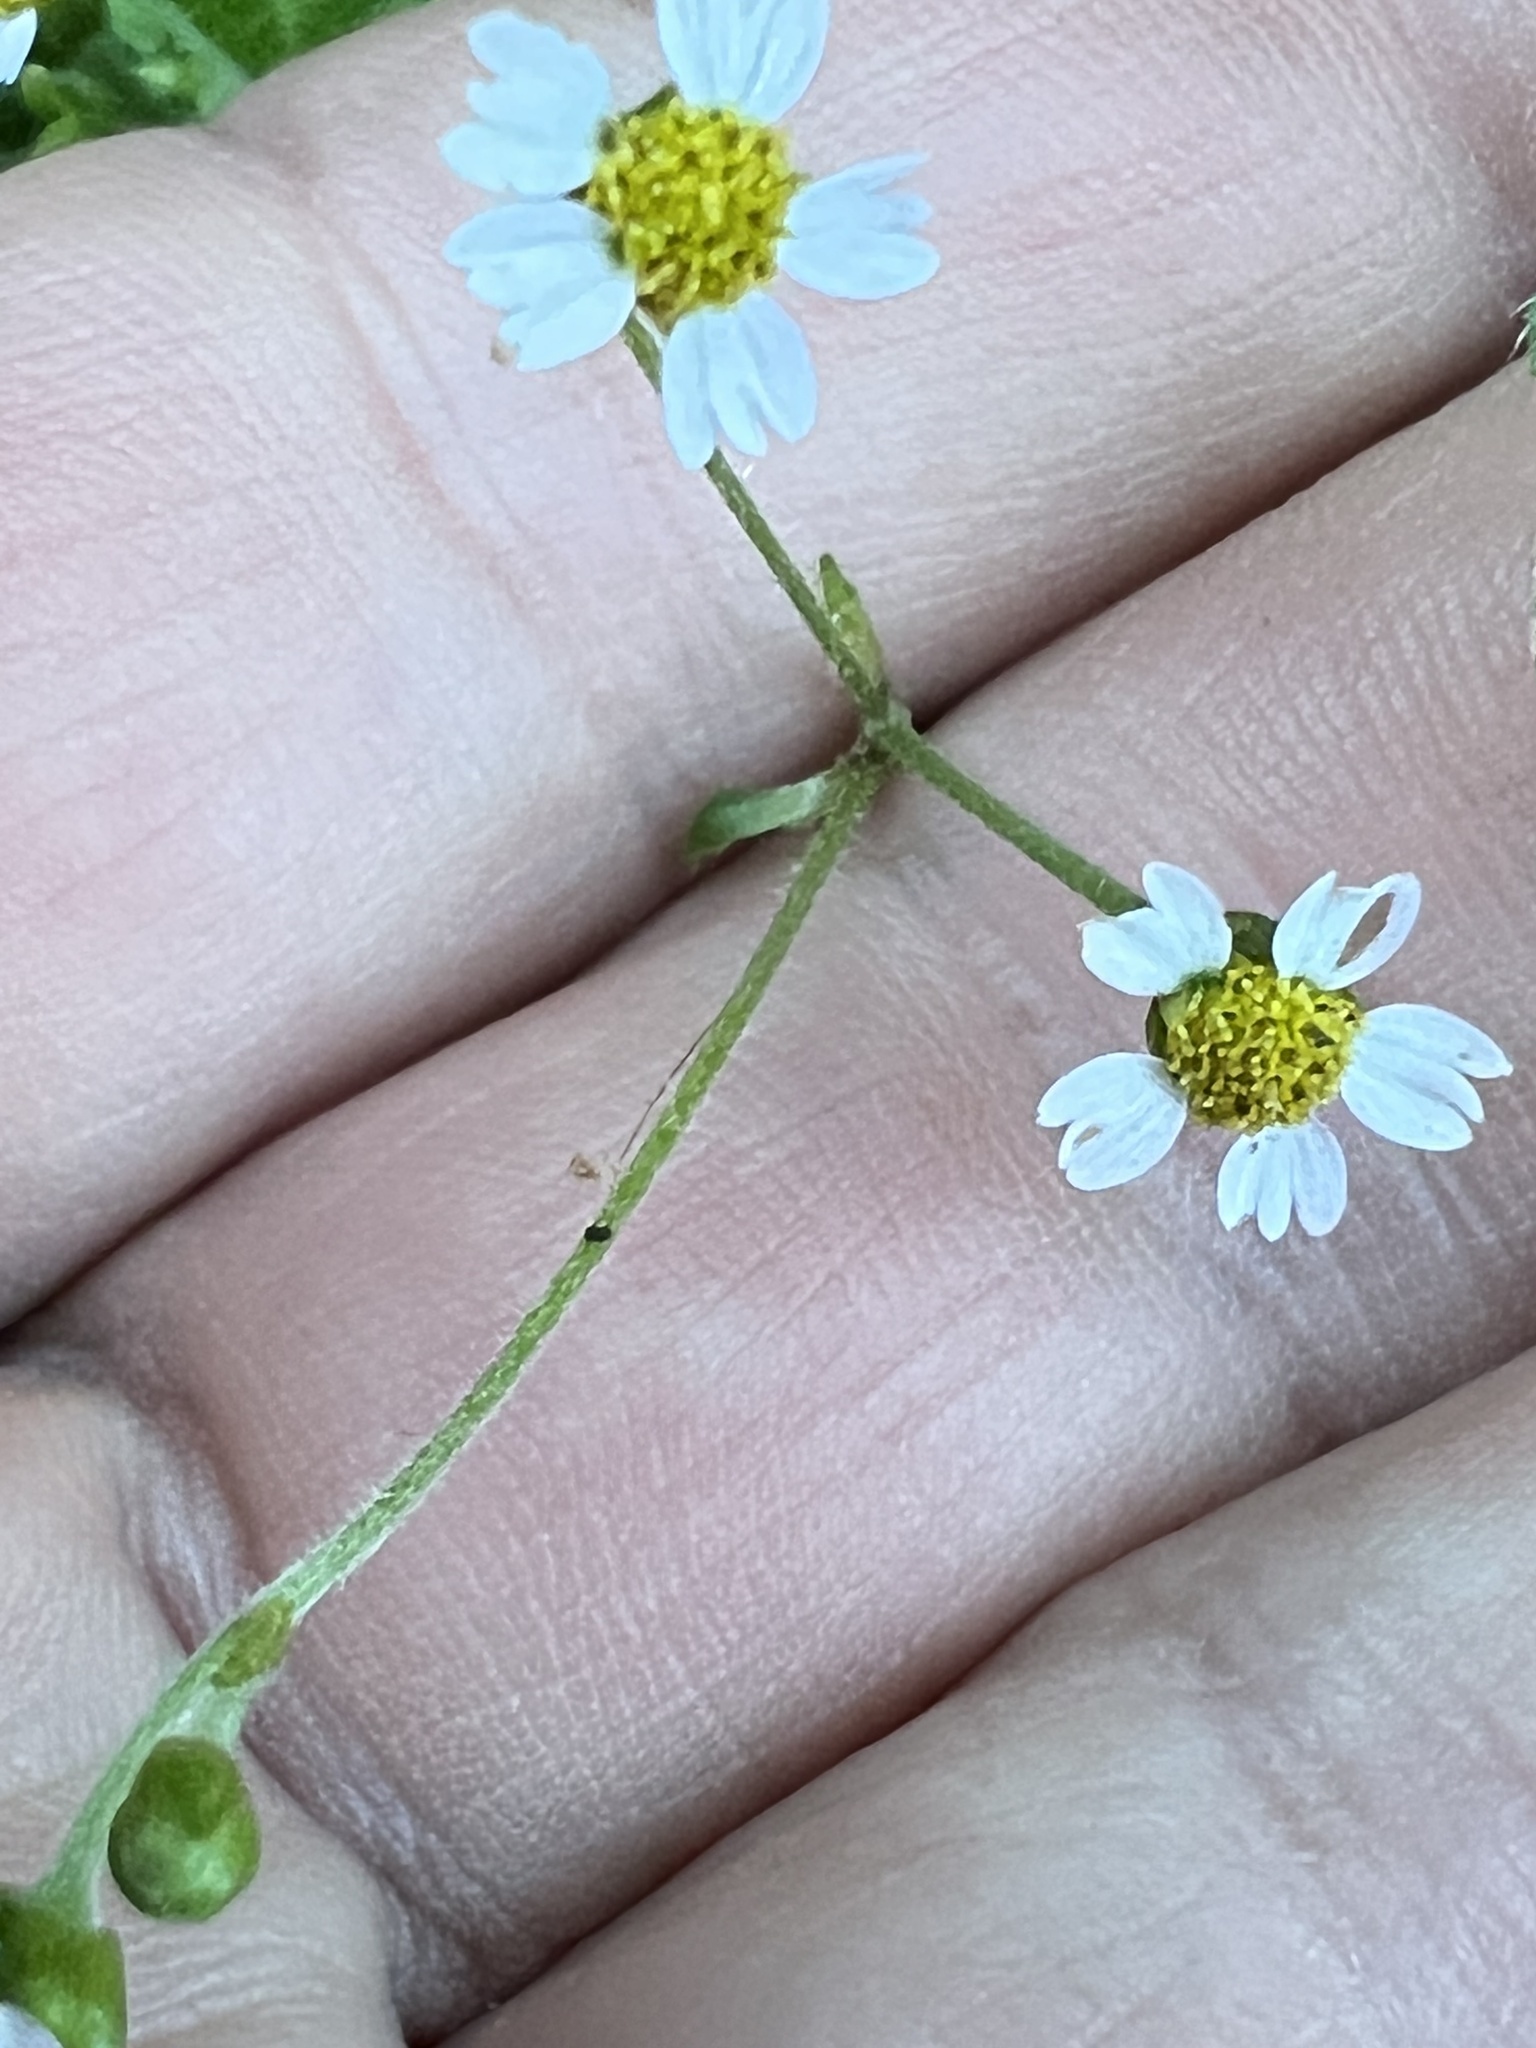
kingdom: Plantae
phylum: Tracheophyta
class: Magnoliopsida
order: Asterales
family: Asteraceae
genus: Galinsoga
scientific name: Galinsoga quadriradiata
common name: Shaggy soldier
